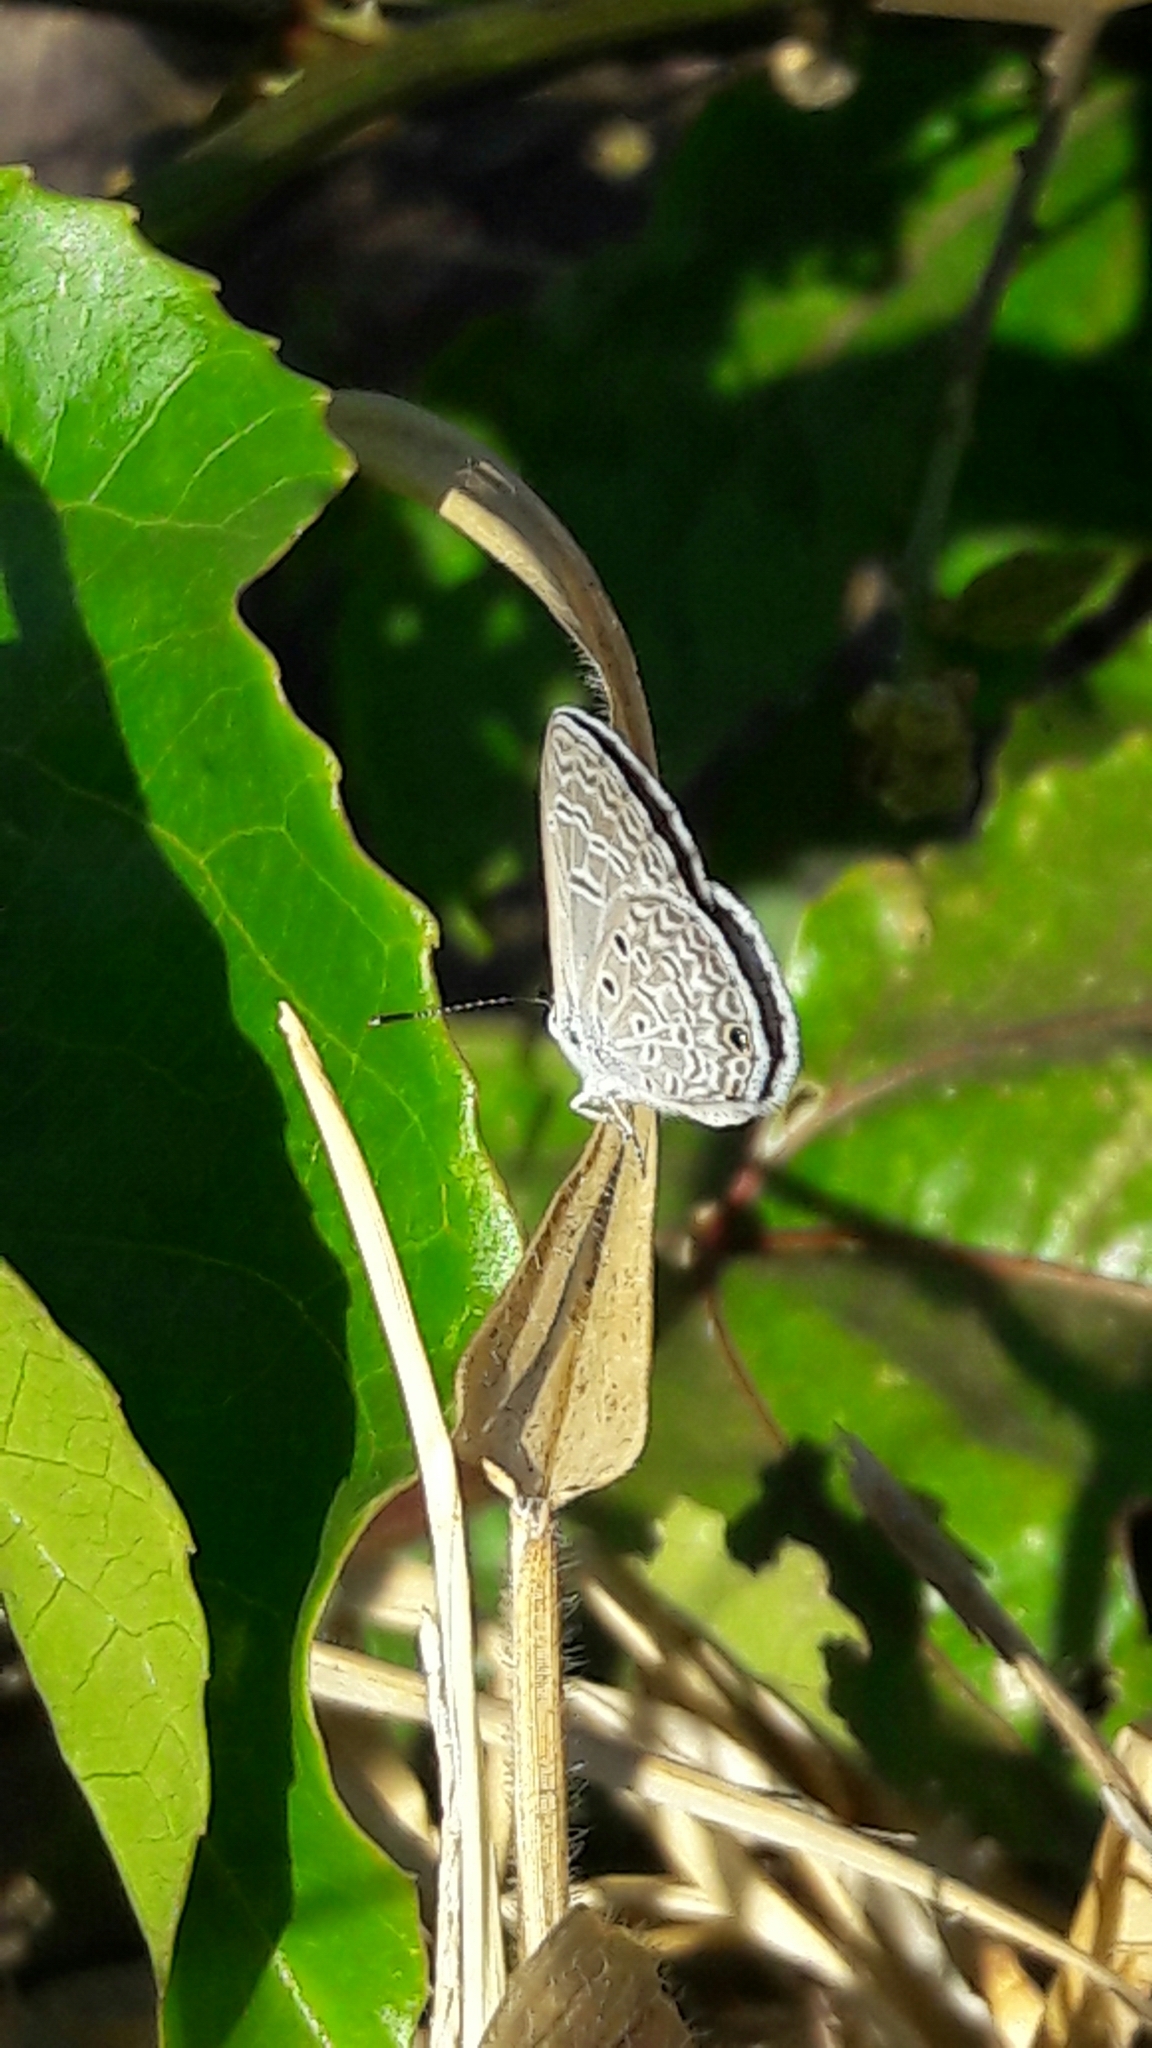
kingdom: Animalia
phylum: Arthropoda
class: Insecta
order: Lepidoptera
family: Lycaenidae
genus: Hemiargus
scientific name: Hemiargus hanno
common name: Common blue
